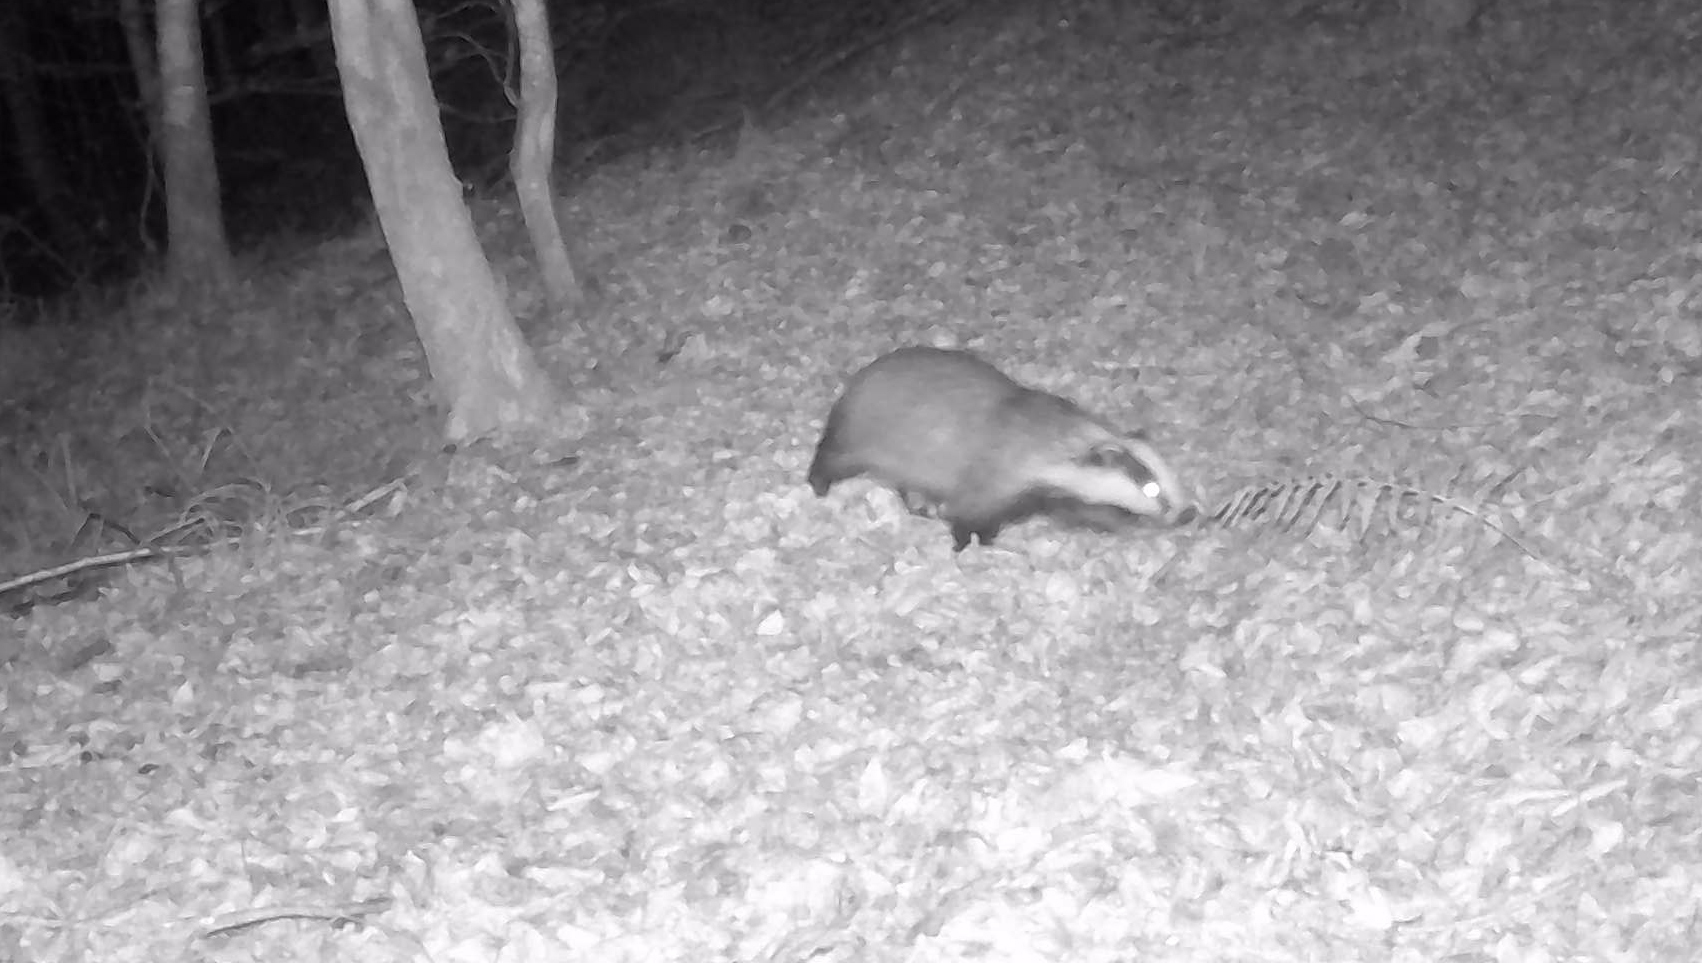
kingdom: Animalia
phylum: Chordata
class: Mammalia
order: Carnivora
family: Mustelidae
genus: Meles
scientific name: Meles meles
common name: Eurasian badger
